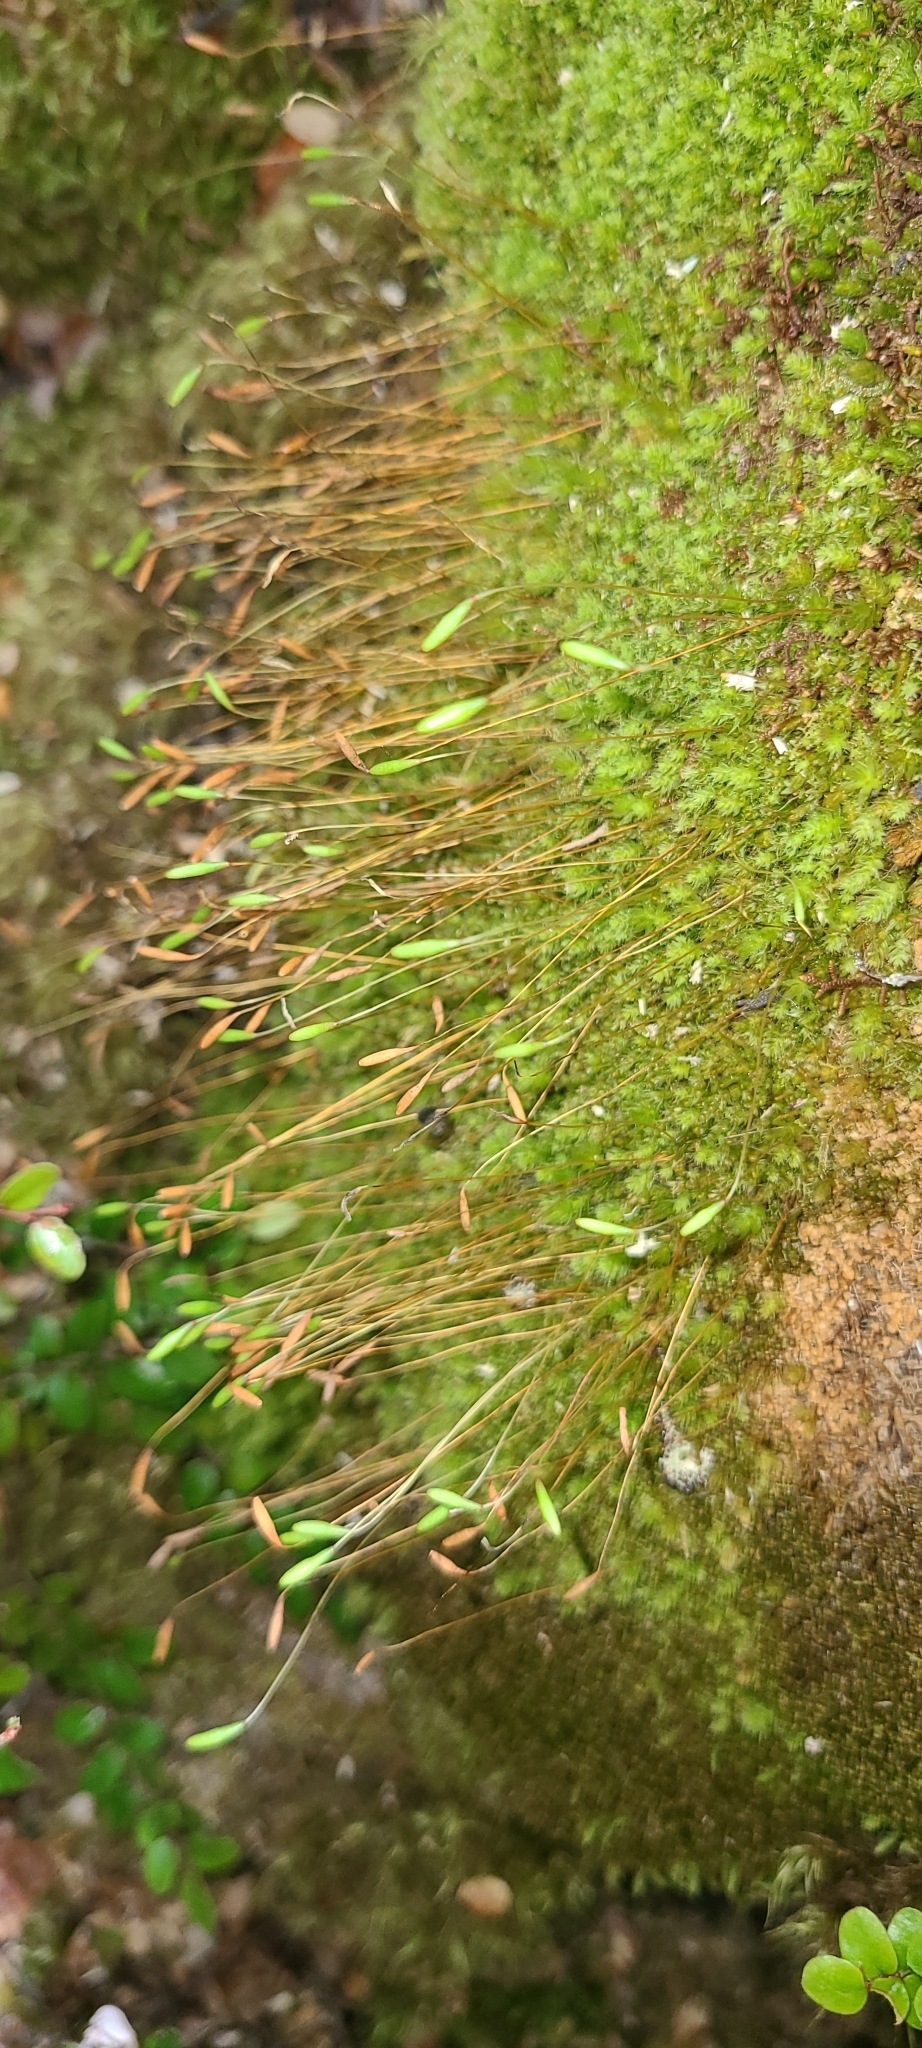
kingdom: Plantae
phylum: Bryophyta
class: Bryopsida
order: Bryales
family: Leptostomataceae
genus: Leptostomum
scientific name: Leptostomum inclinans
